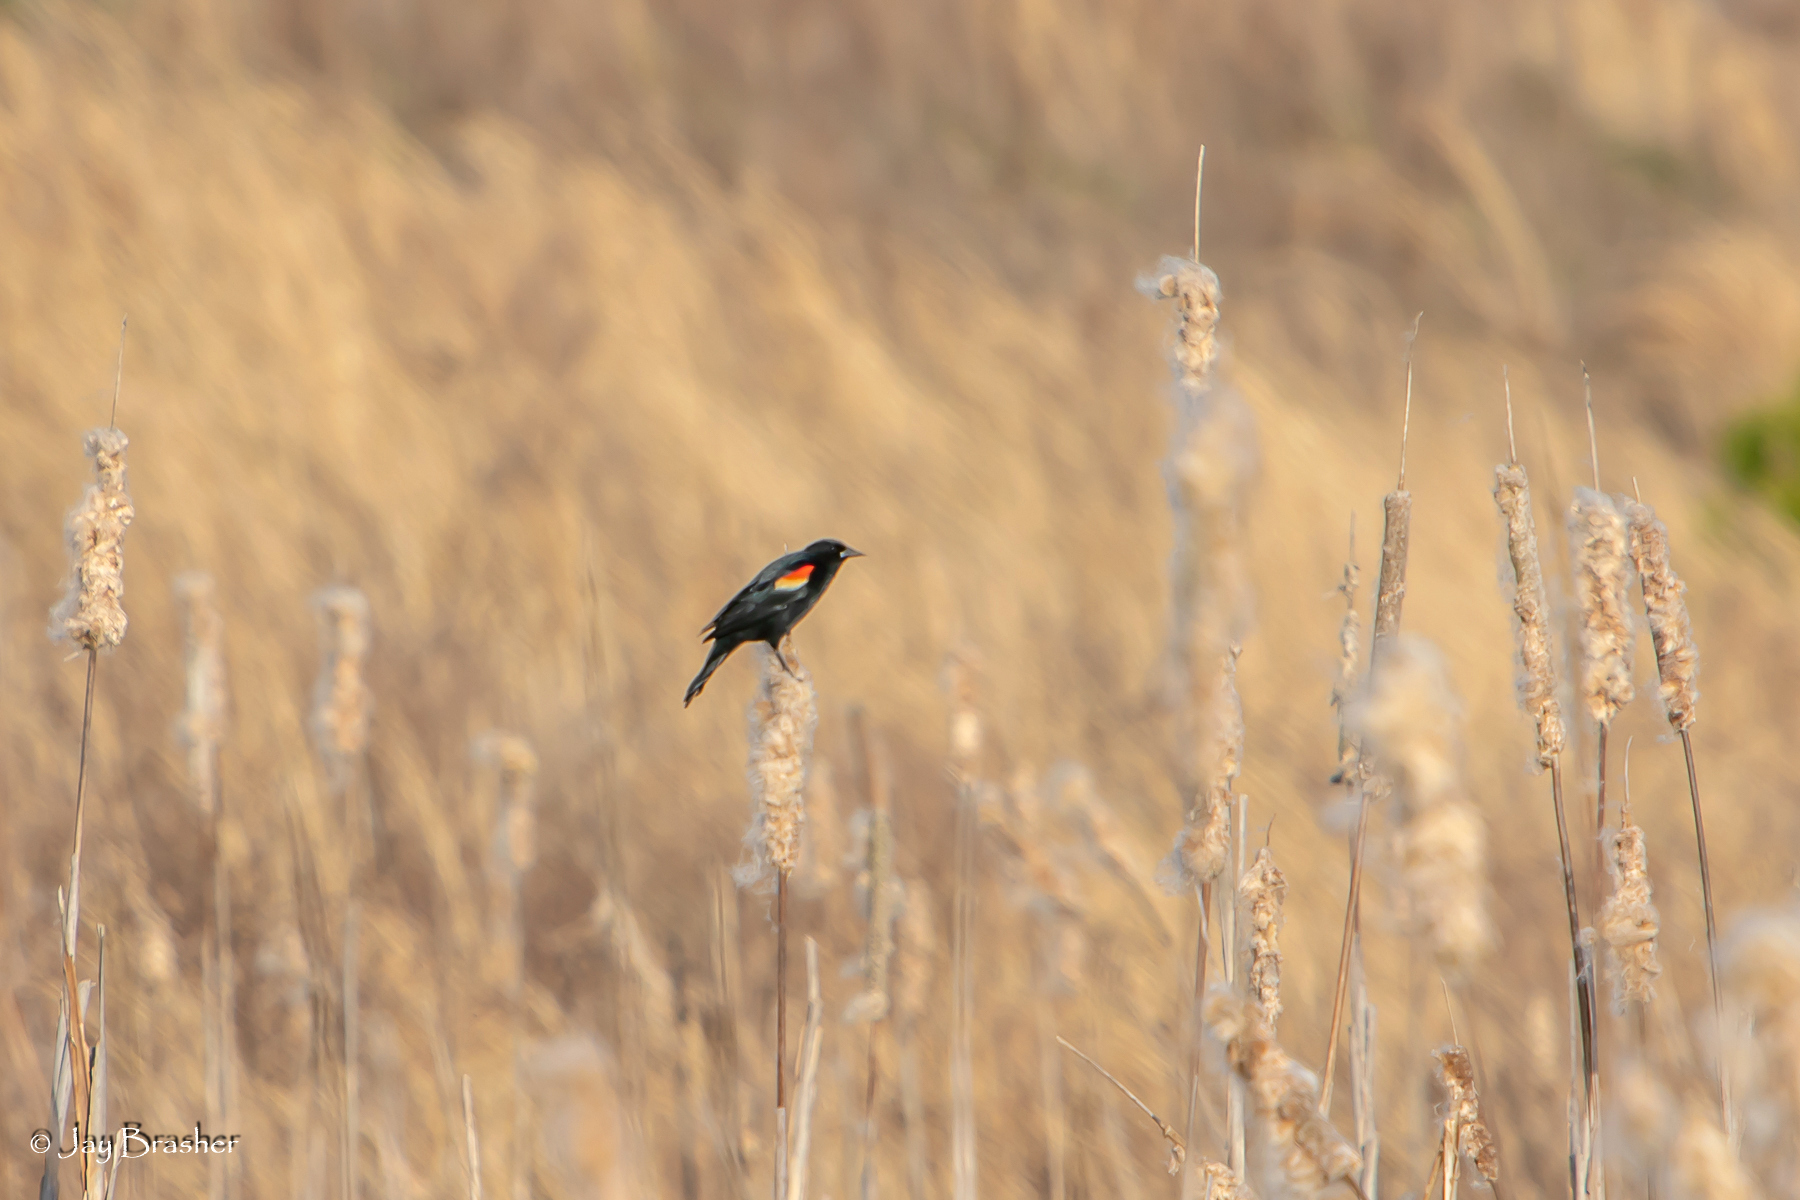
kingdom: Animalia
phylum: Chordata
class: Aves
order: Passeriformes
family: Icteridae
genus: Agelaius
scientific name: Agelaius phoeniceus
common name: Red-winged blackbird
